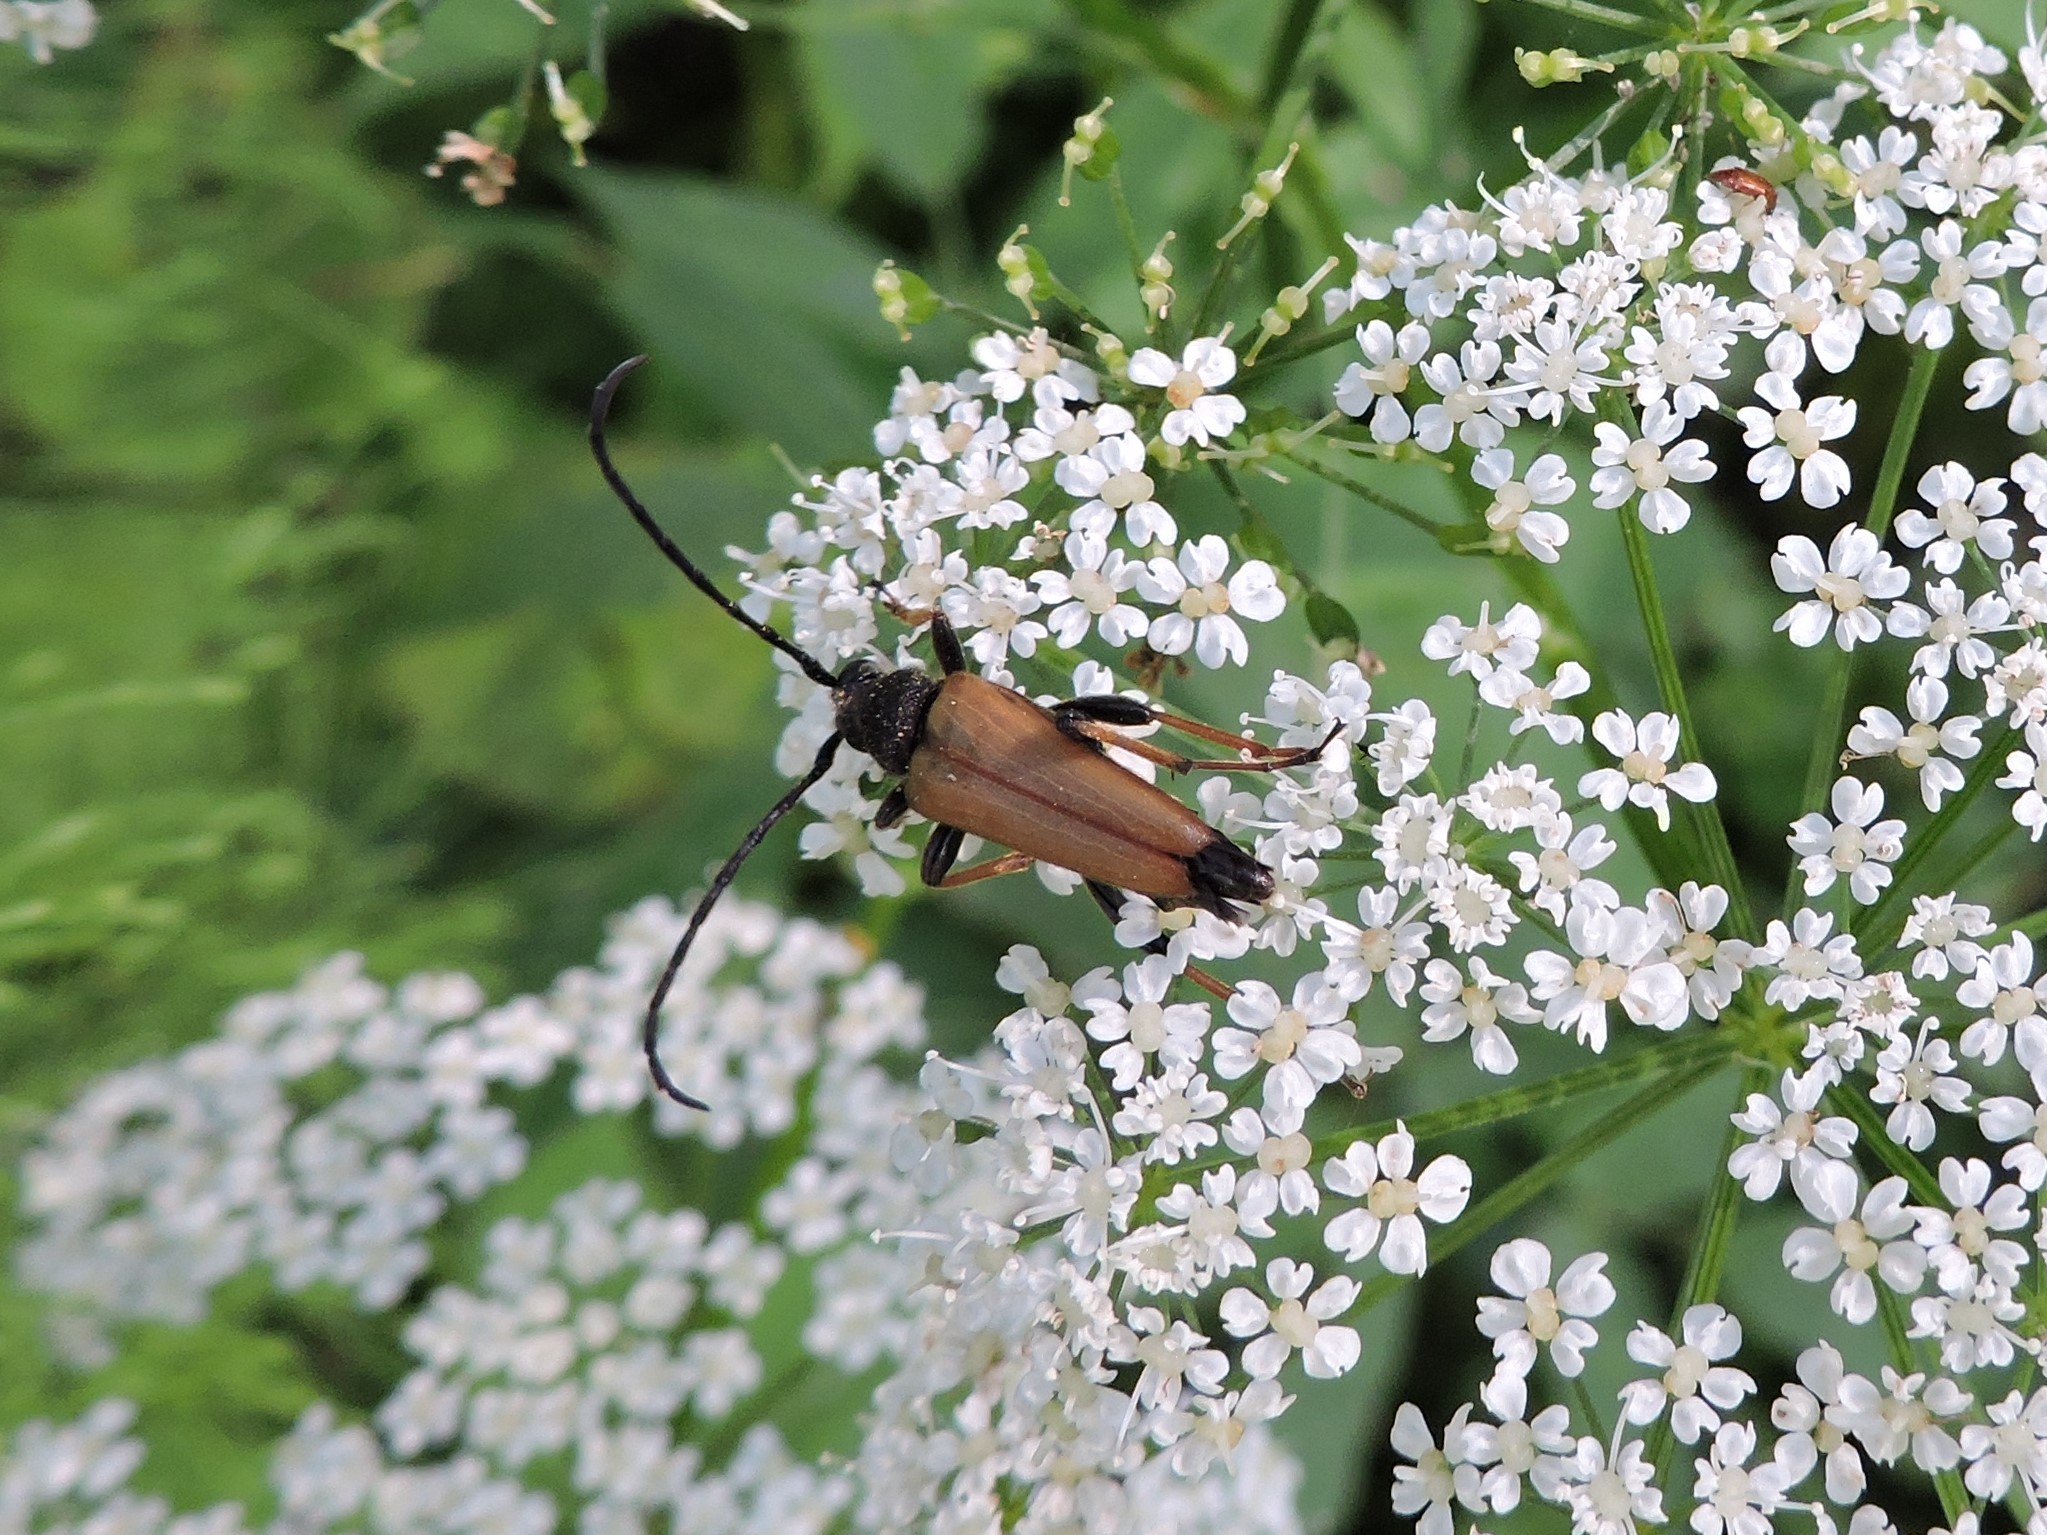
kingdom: Animalia
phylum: Arthropoda
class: Insecta
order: Coleoptera
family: Cerambycidae
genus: Stictoleptura
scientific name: Stictoleptura rubra
